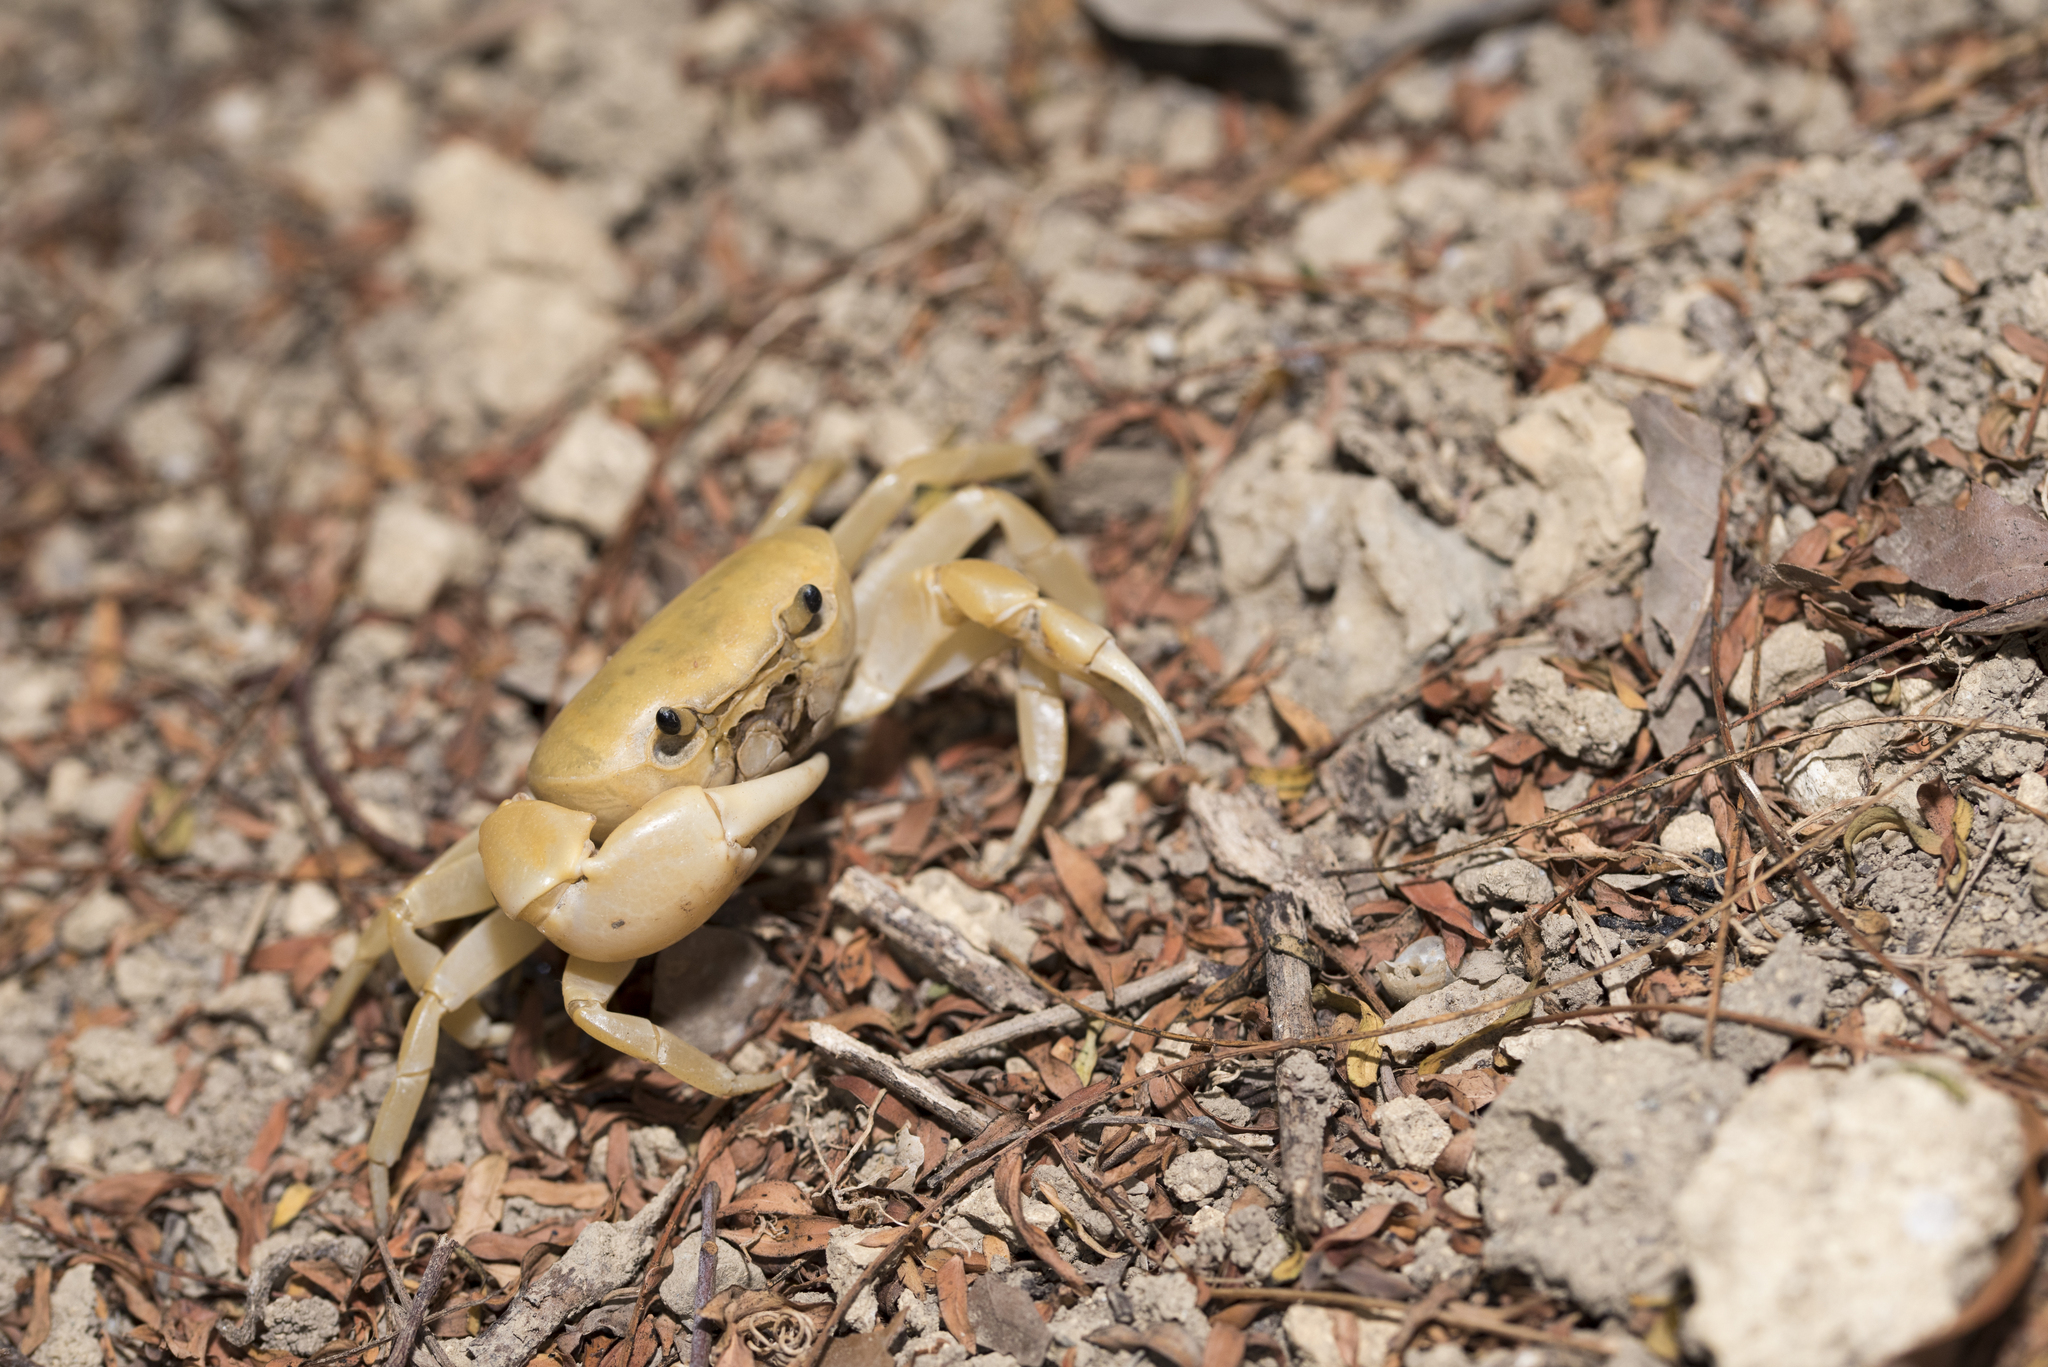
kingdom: Animalia
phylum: Arthropoda
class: Malacostraca
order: Decapoda
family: Potamidae
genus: Geothelphusa
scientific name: Geothelphusa makatao
